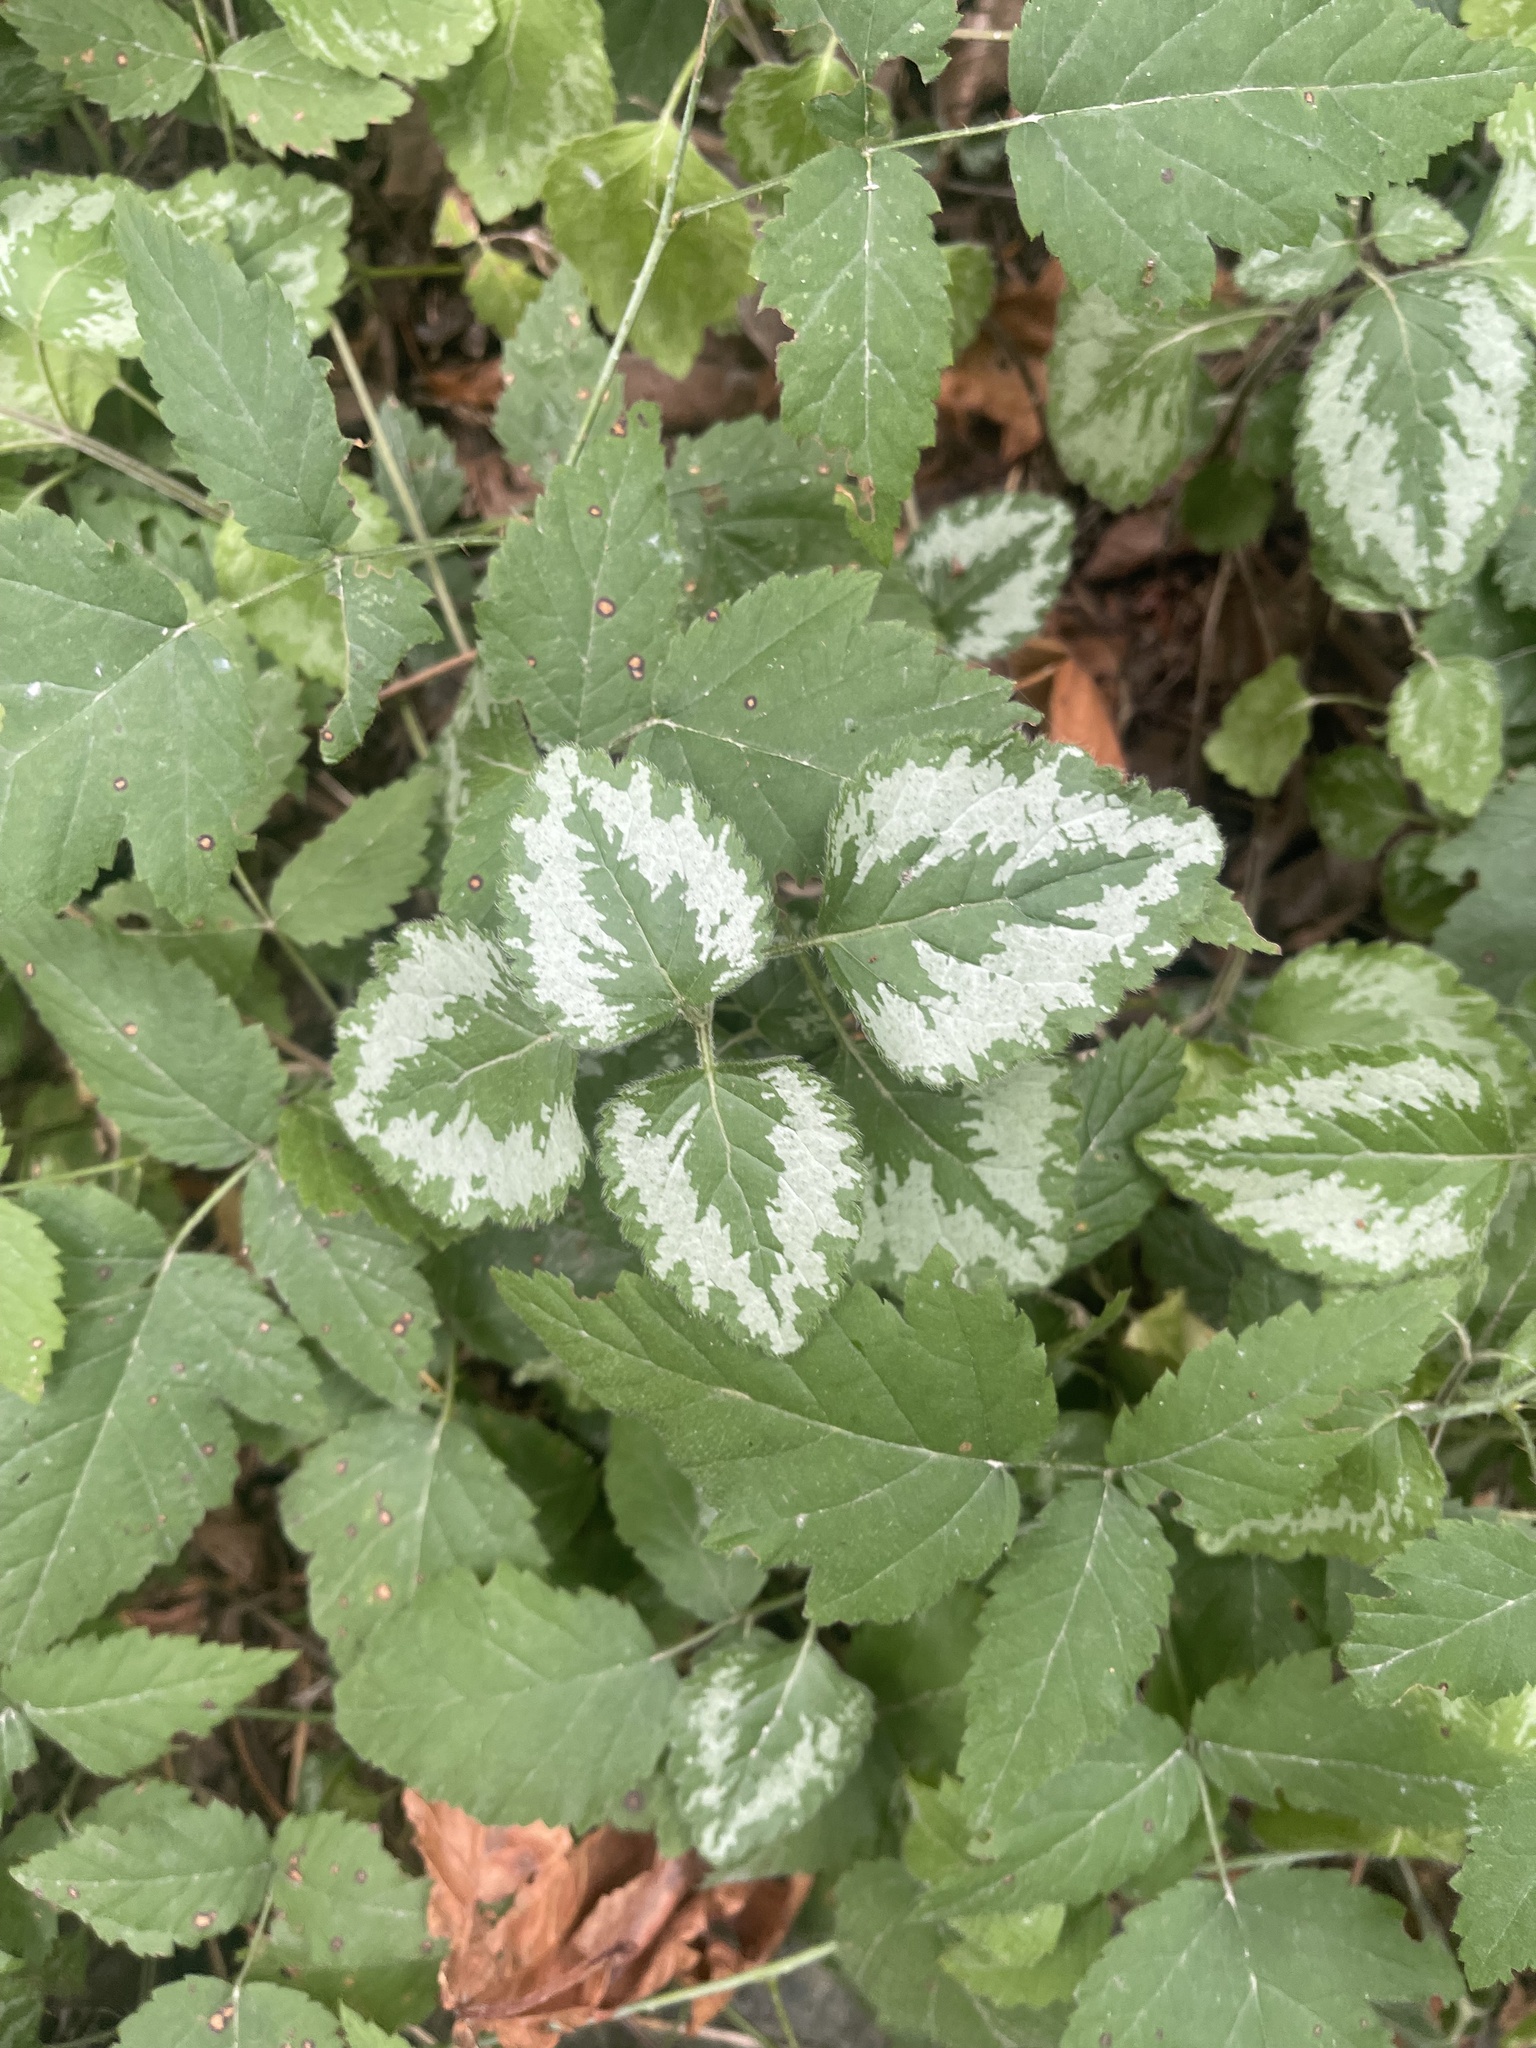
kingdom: Plantae
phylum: Tracheophyta
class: Magnoliopsida
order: Lamiales
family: Lamiaceae
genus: Lamium
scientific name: Lamium galeobdolon
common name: Yellow archangel
